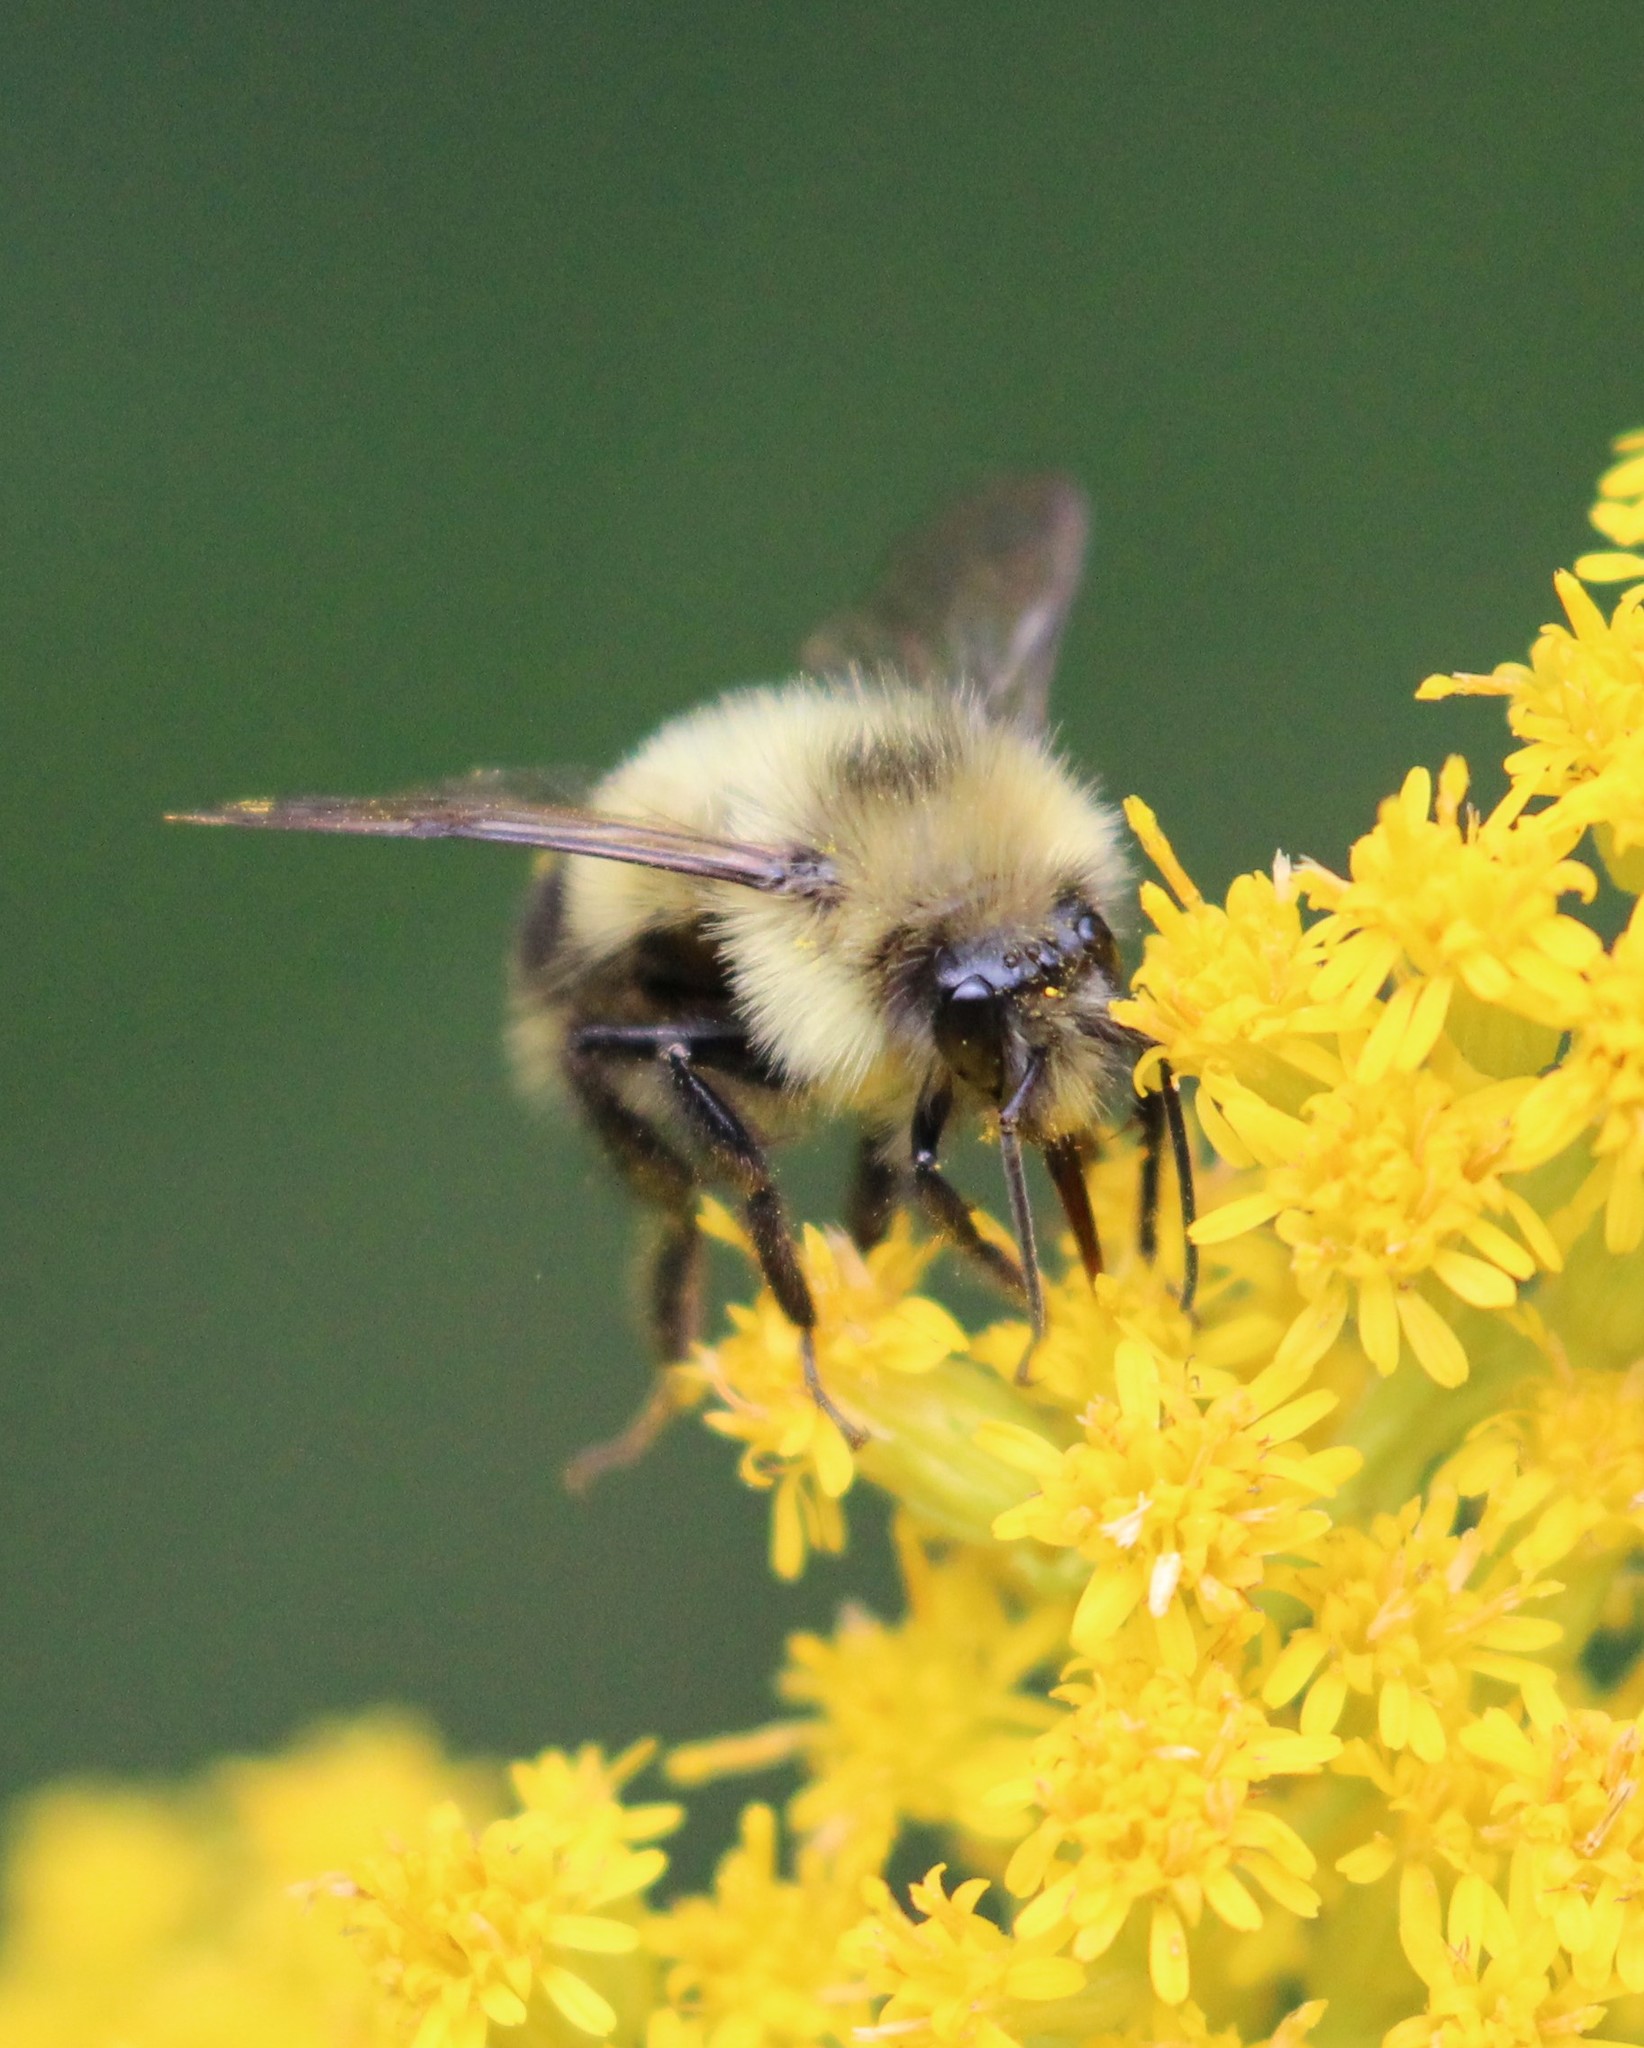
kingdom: Animalia
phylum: Arthropoda
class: Insecta
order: Hymenoptera
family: Apidae
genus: Pyrobombus
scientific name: Pyrobombus
